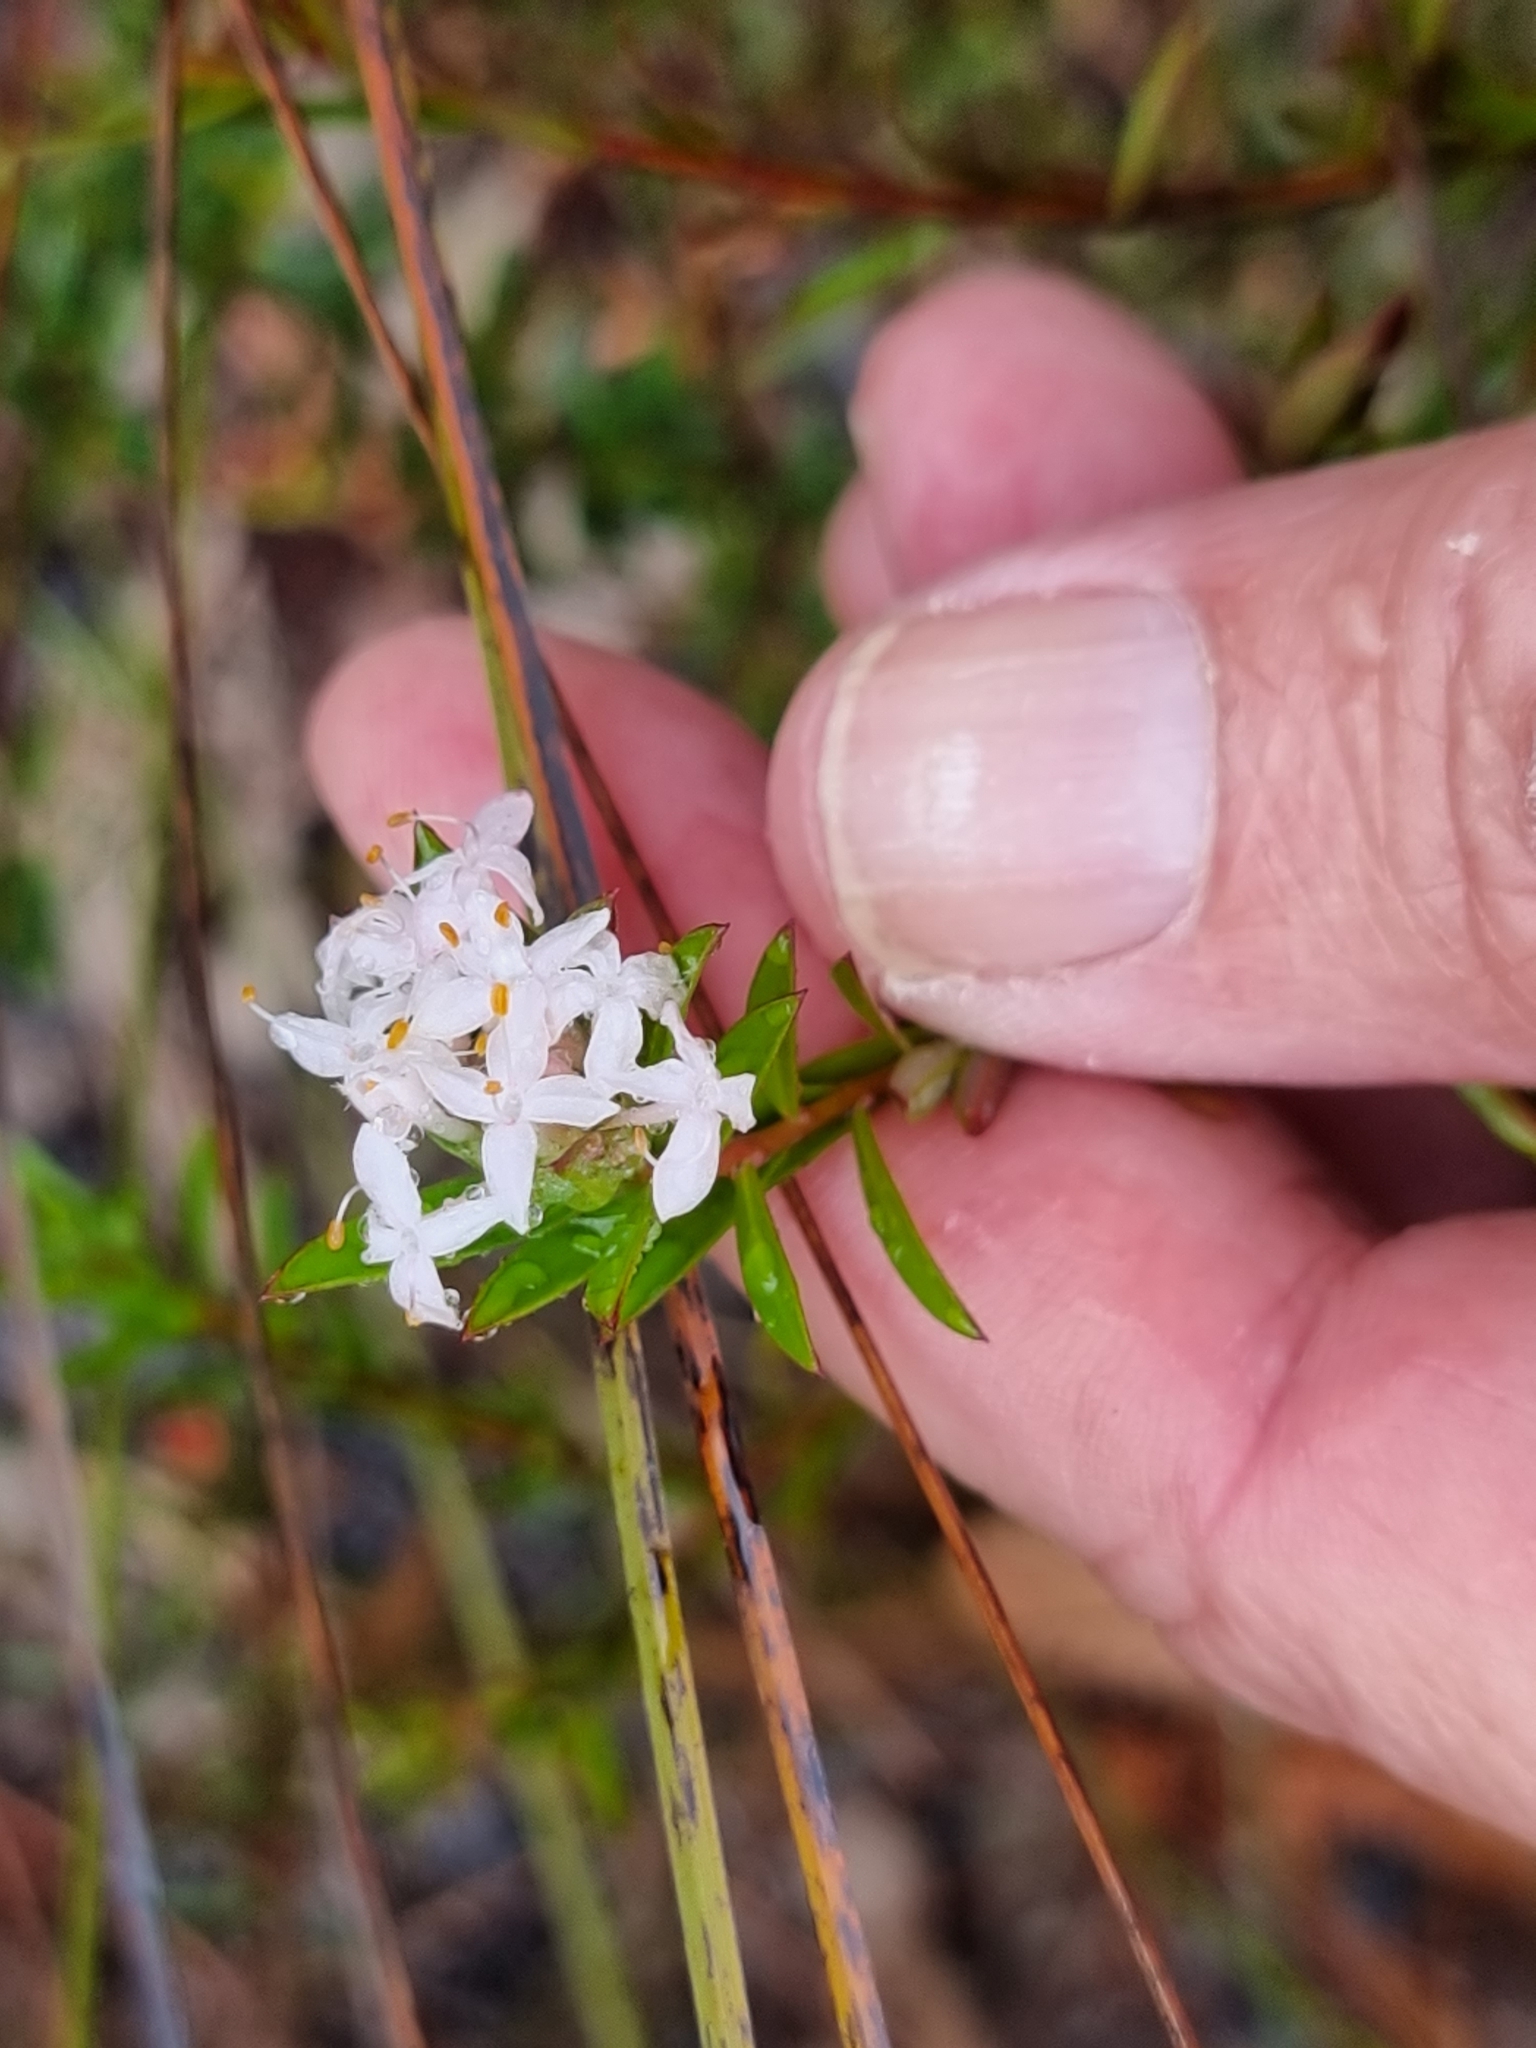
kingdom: Plantae
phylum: Tracheophyta
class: Magnoliopsida
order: Malvales
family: Thymelaeaceae
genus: Pimelea
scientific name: Pimelea linifolia
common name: Queen-of-the-bush
